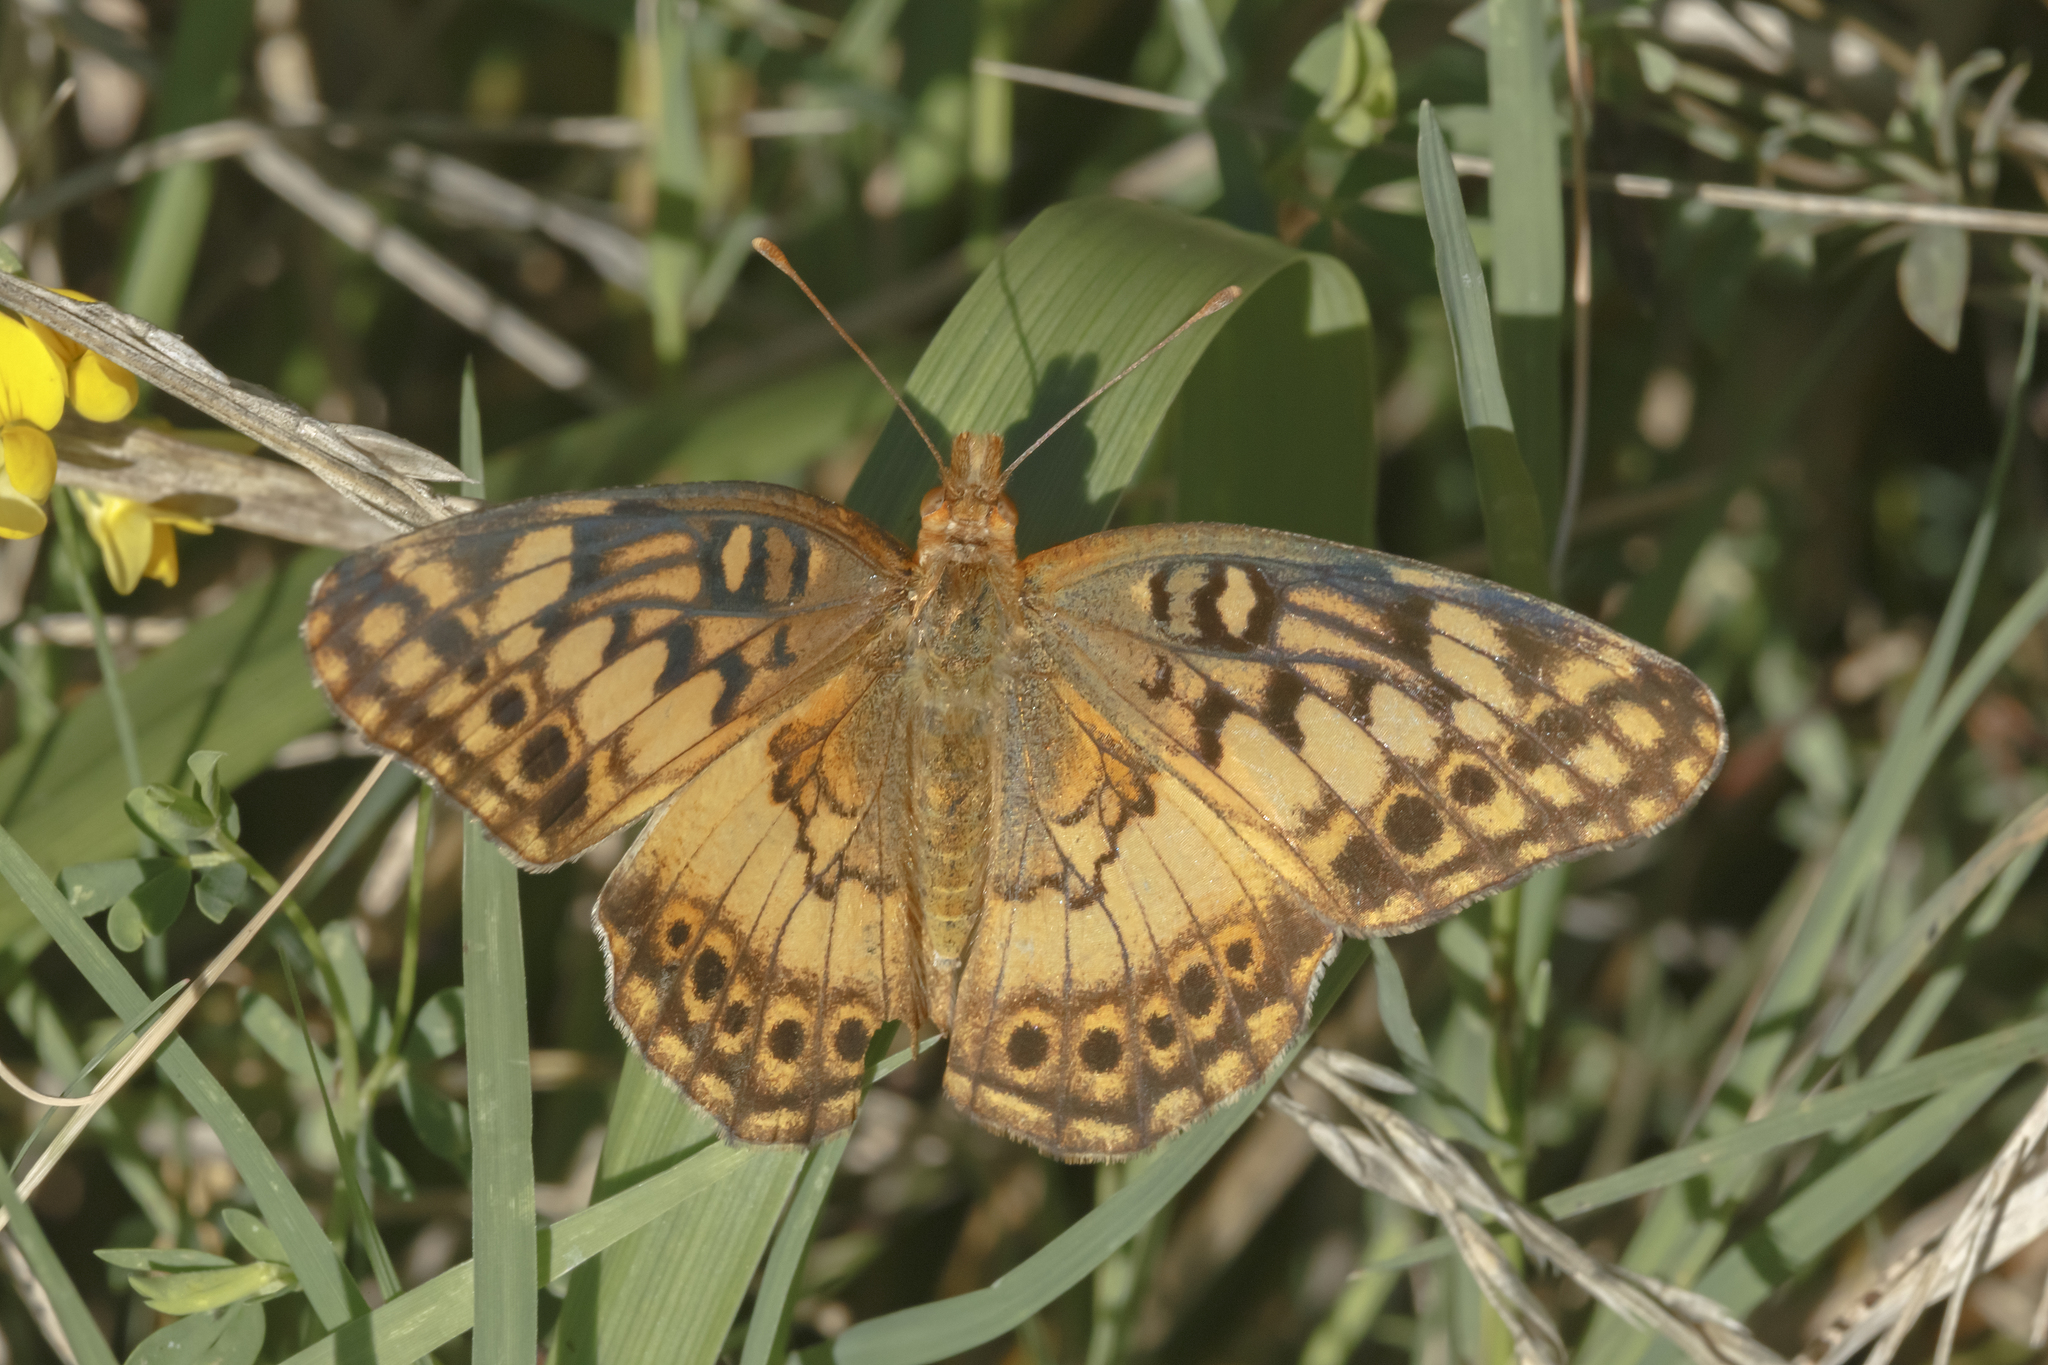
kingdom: Animalia
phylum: Arthropoda
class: Insecta
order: Lepidoptera
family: Nymphalidae
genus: Euptoieta
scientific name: Euptoieta hortensia
